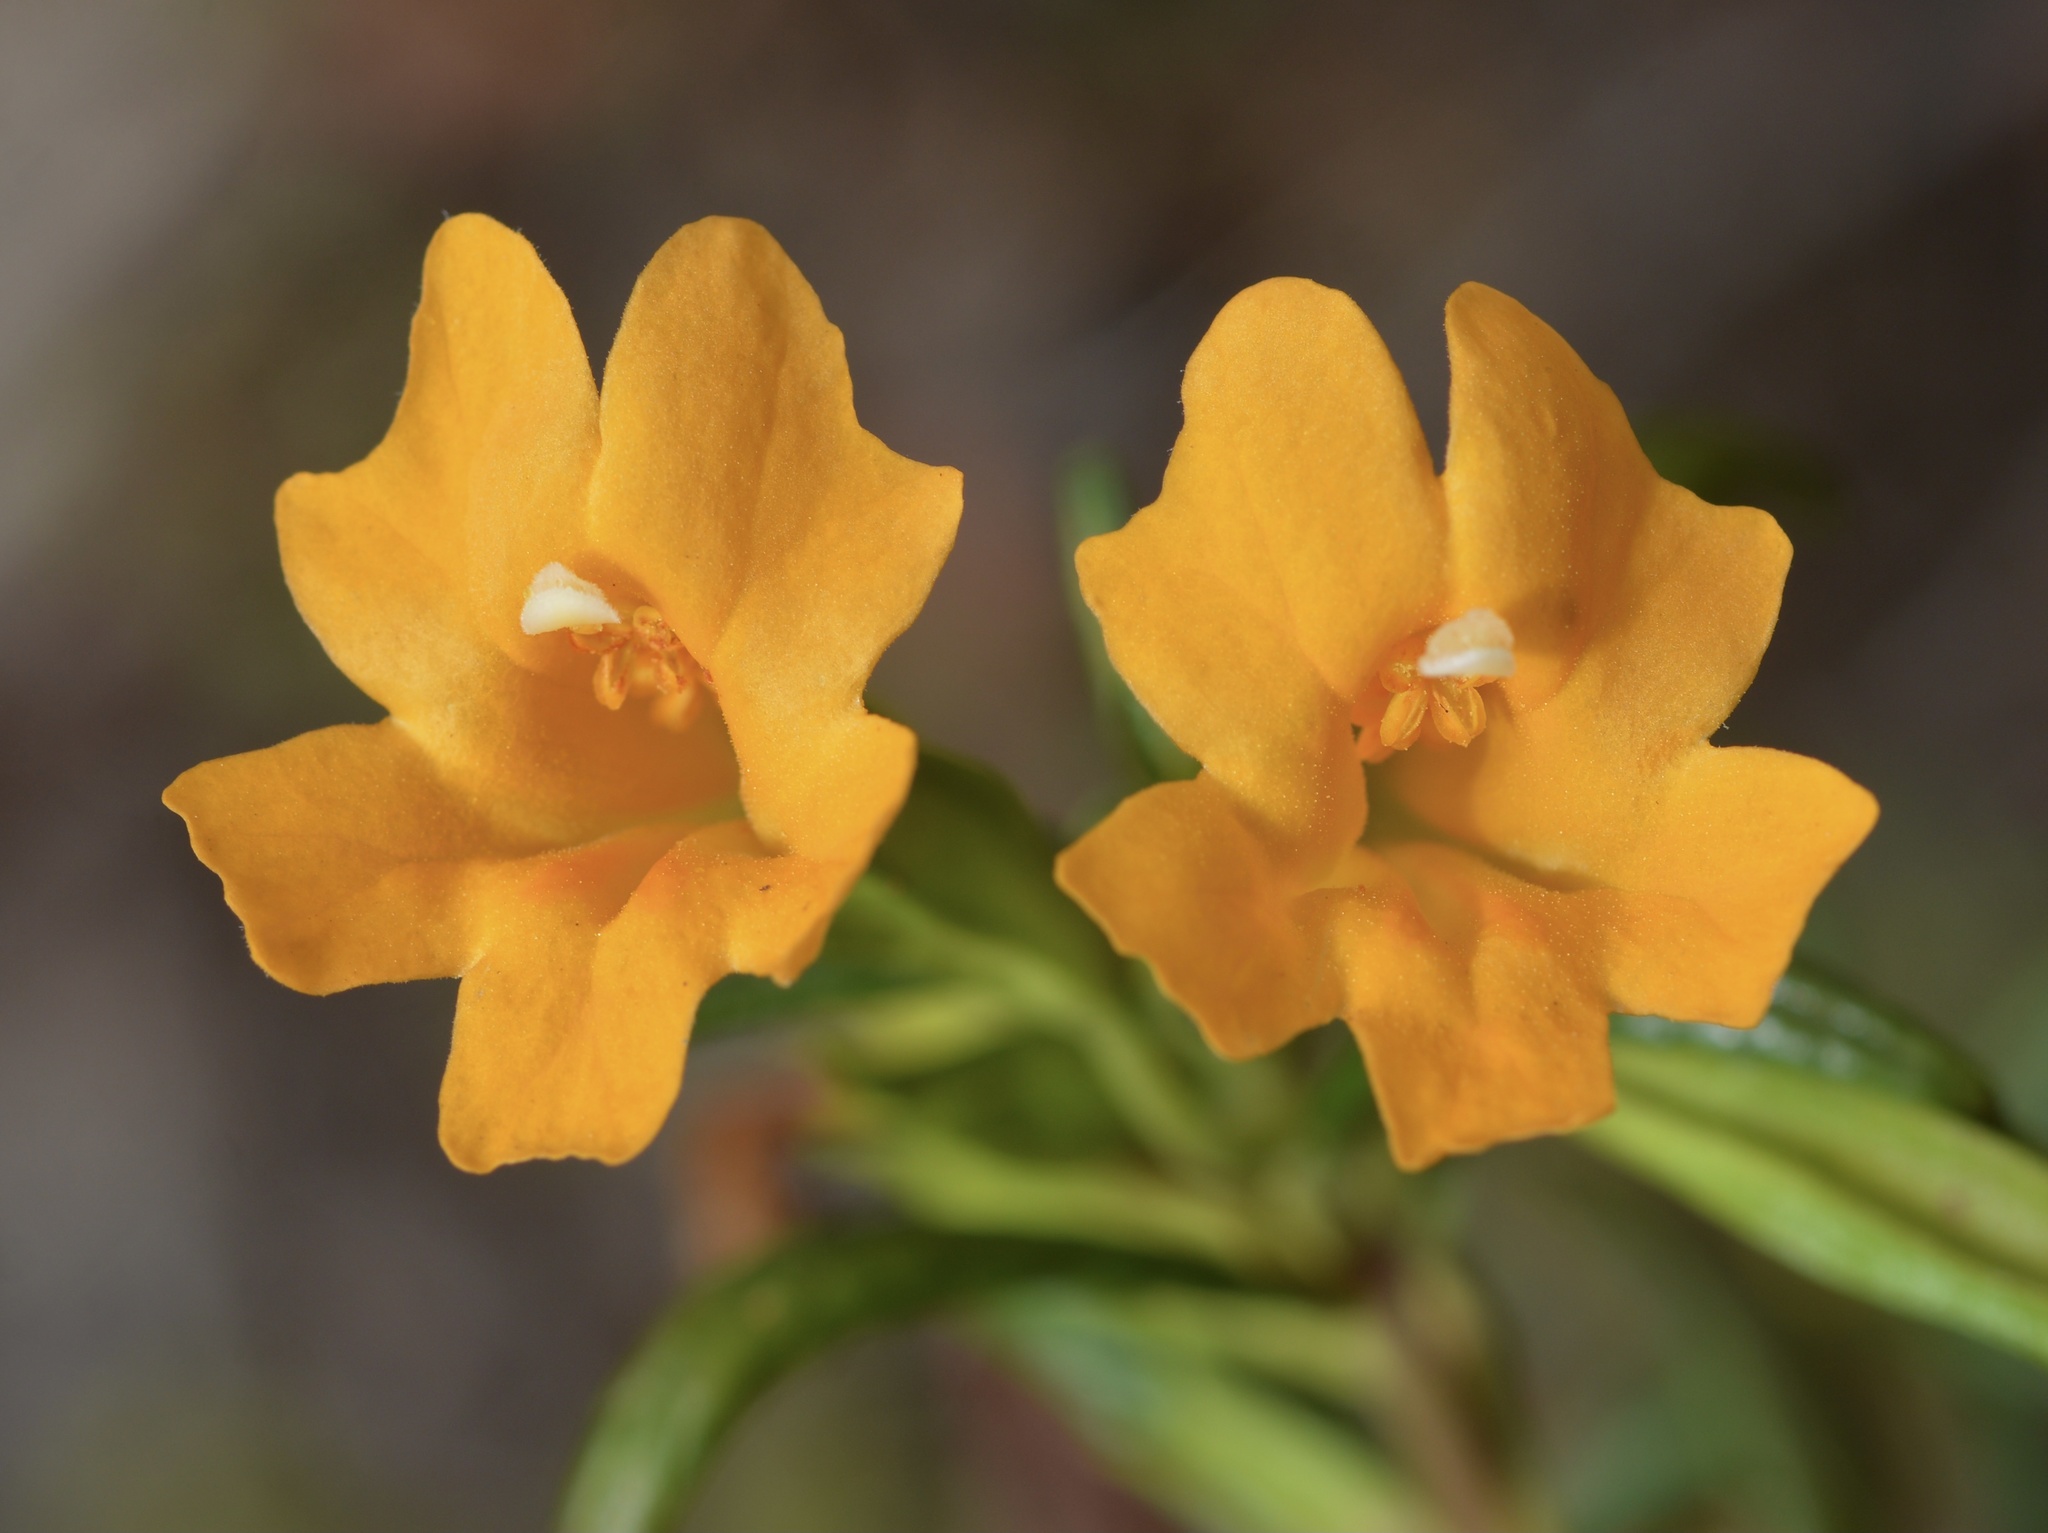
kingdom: Plantae
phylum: Tracheophyta
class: Magnoliopsida
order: Lamiales
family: Phrymaceae
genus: Diplacus
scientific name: Diplacus aurantiacus
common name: Bush monkey-flower
